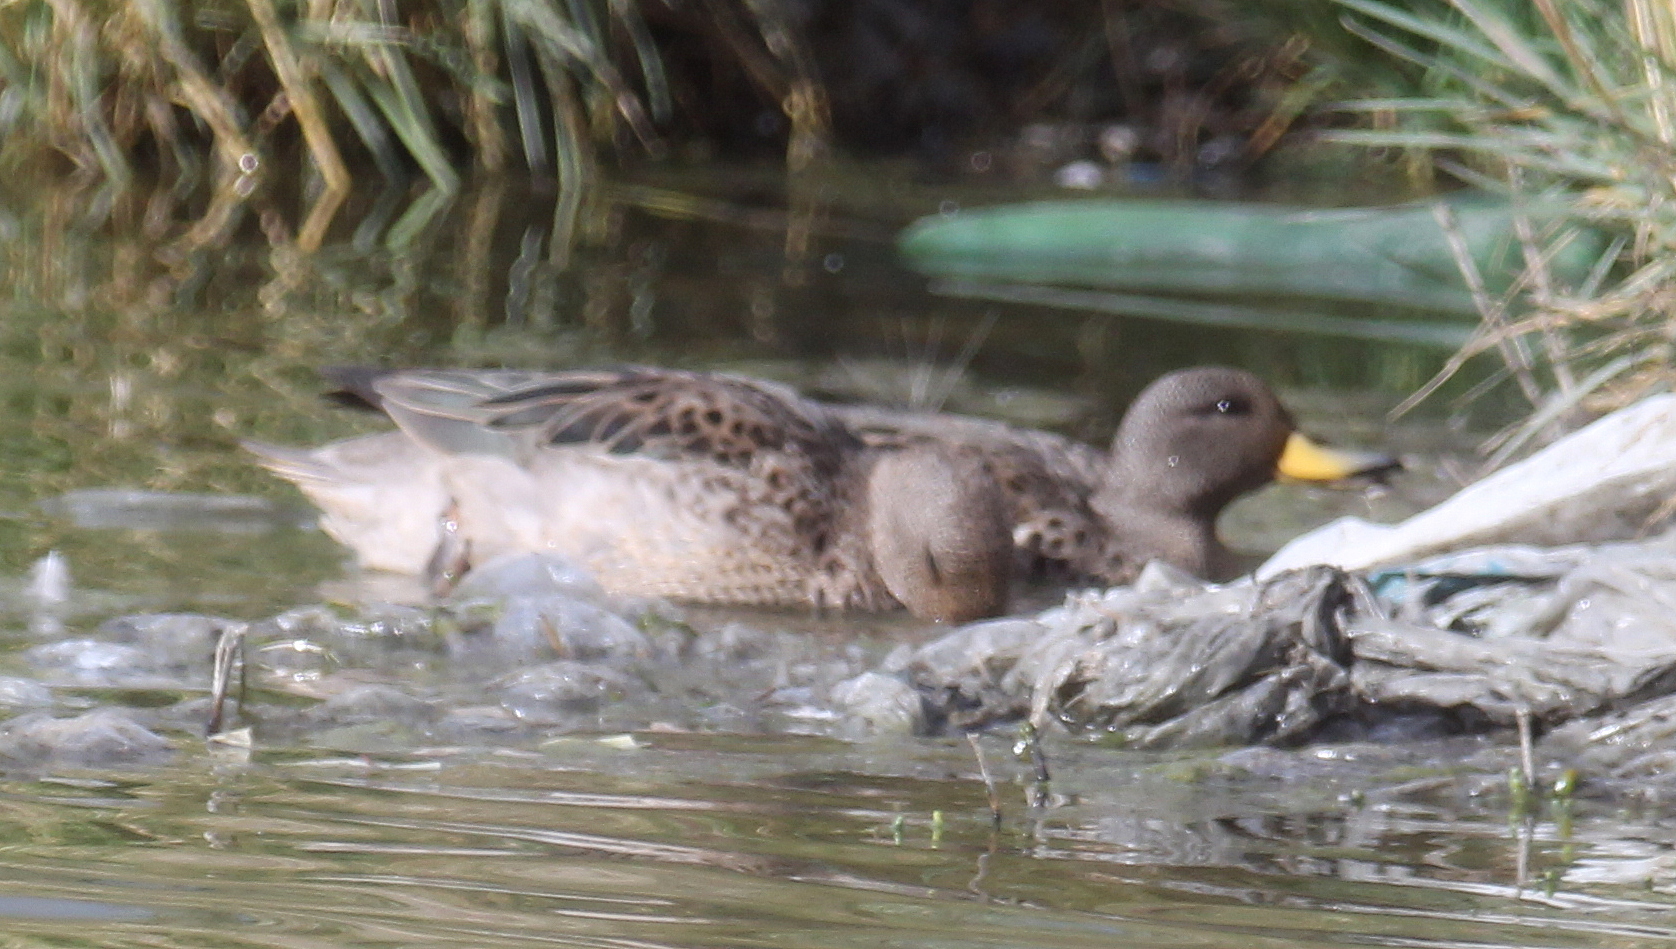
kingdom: Animalia
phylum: Chordata
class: Aves
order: Anseriformes
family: Anatidae
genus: Anas
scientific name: Anas flavirostris
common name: Yellow-billed teal
